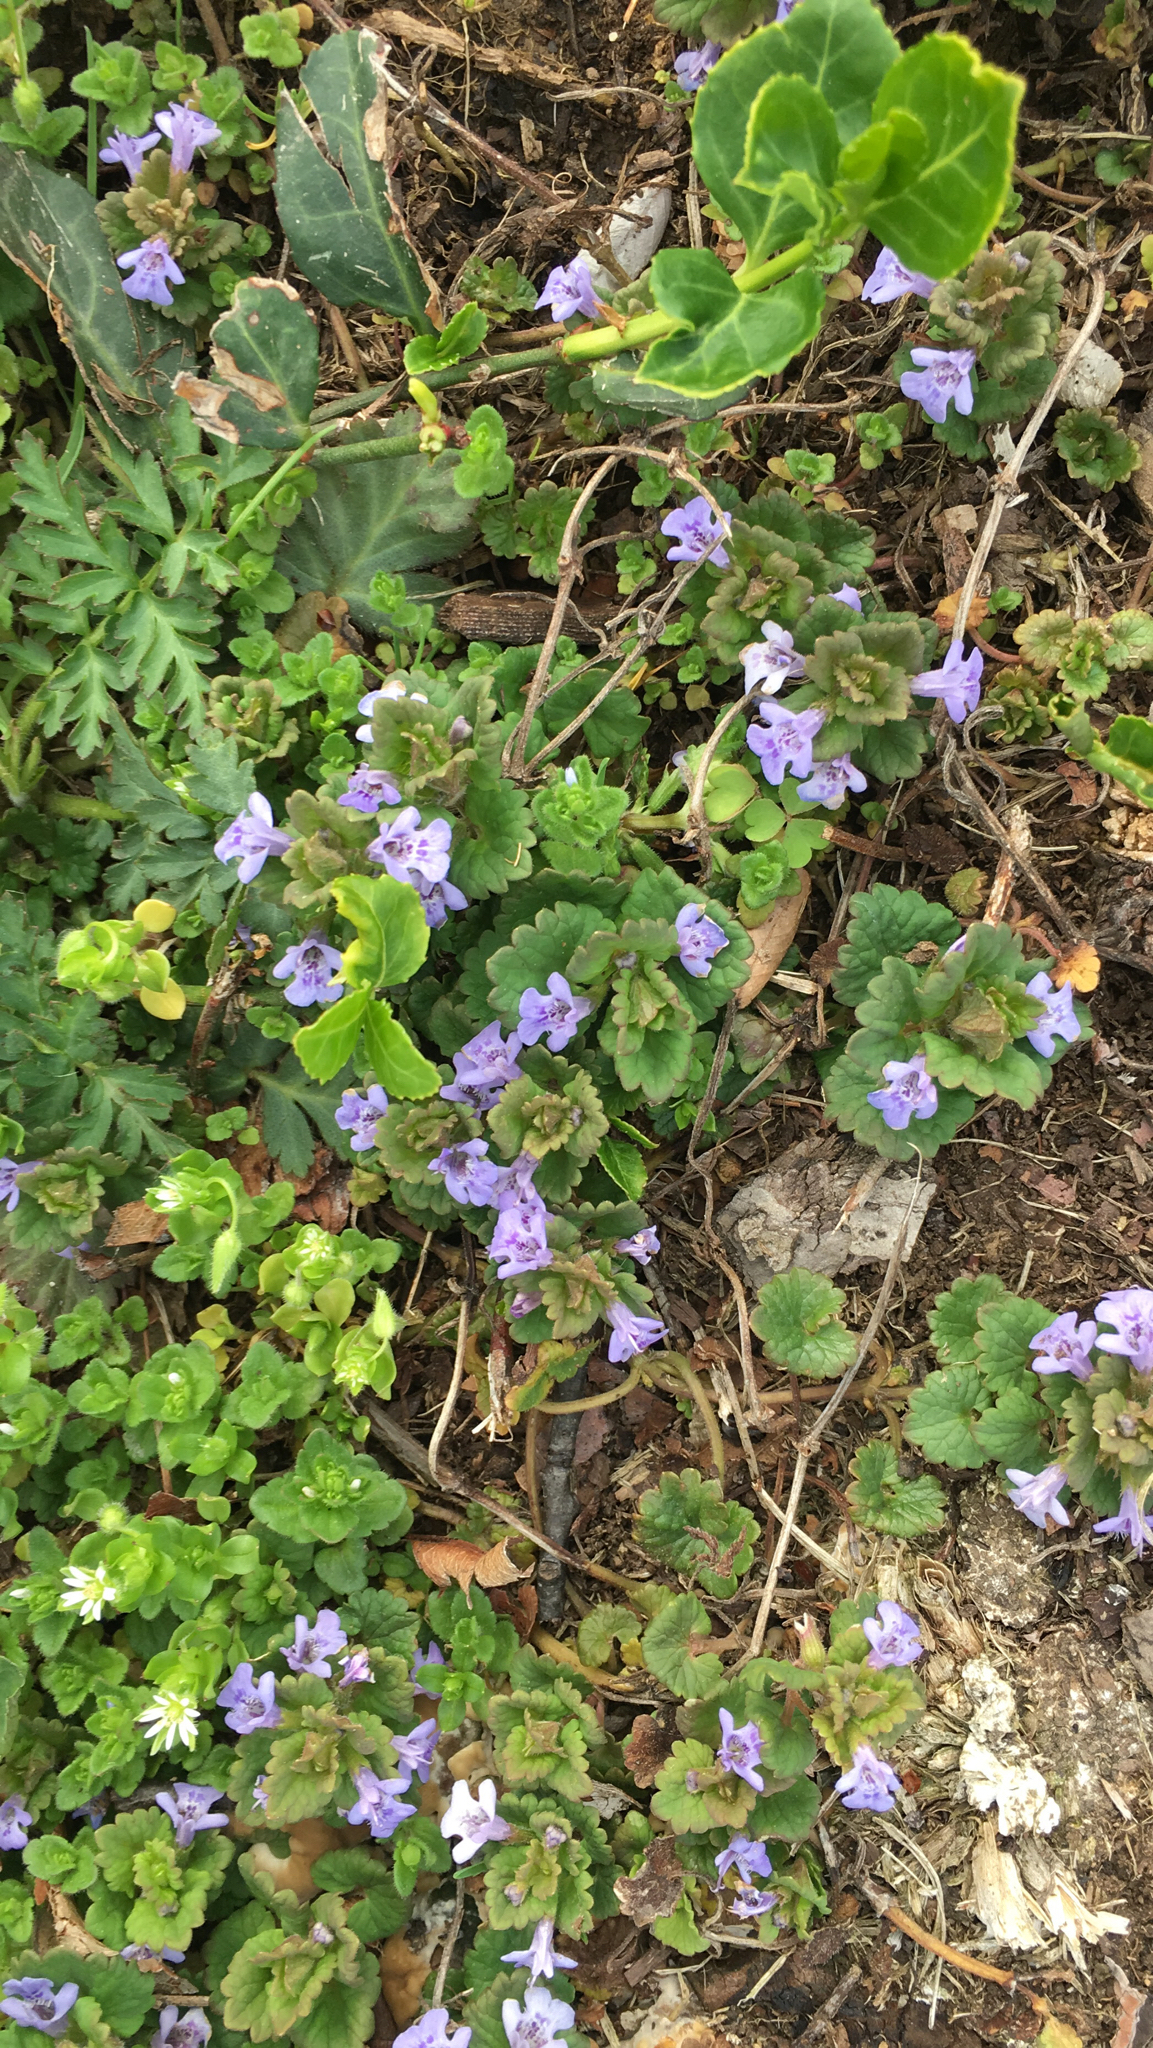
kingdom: Plantae
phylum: Tracheophyta
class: Magnoliopsida
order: Lamiales
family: Lamiaceae
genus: Glechoma
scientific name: Glechoma hederacea
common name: Ground ivy
